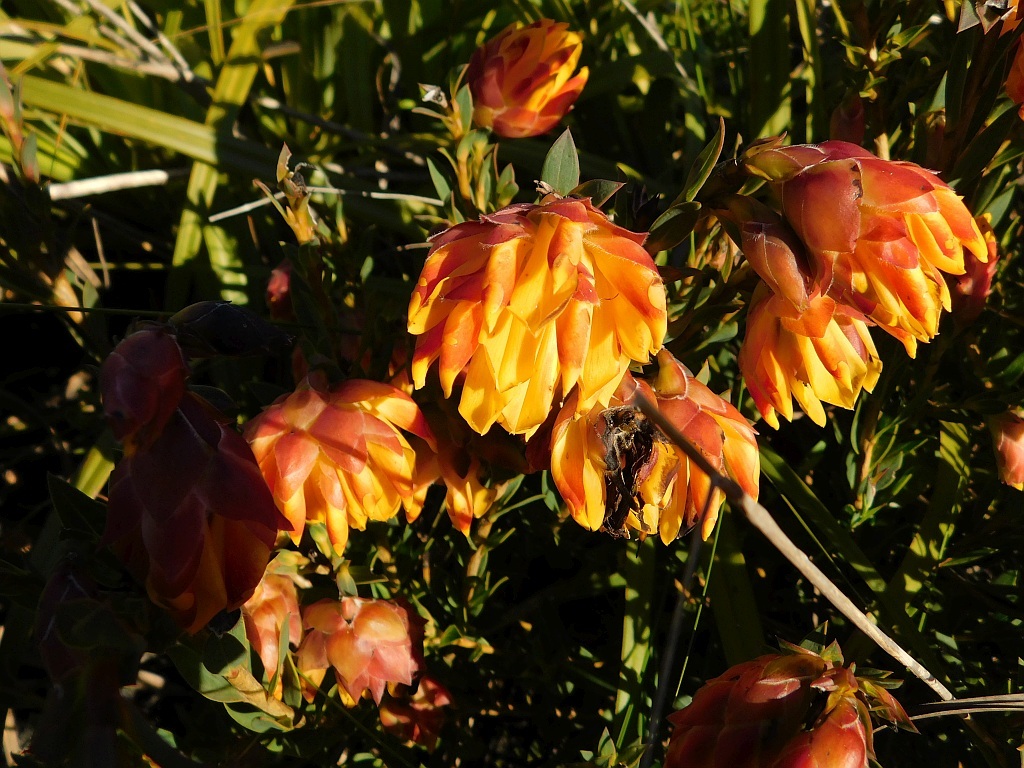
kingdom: Plantae
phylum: Tracheophyta
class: Magnoliopsida
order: Fabales
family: Fabaceae
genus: Liparia
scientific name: Liparia splendens
